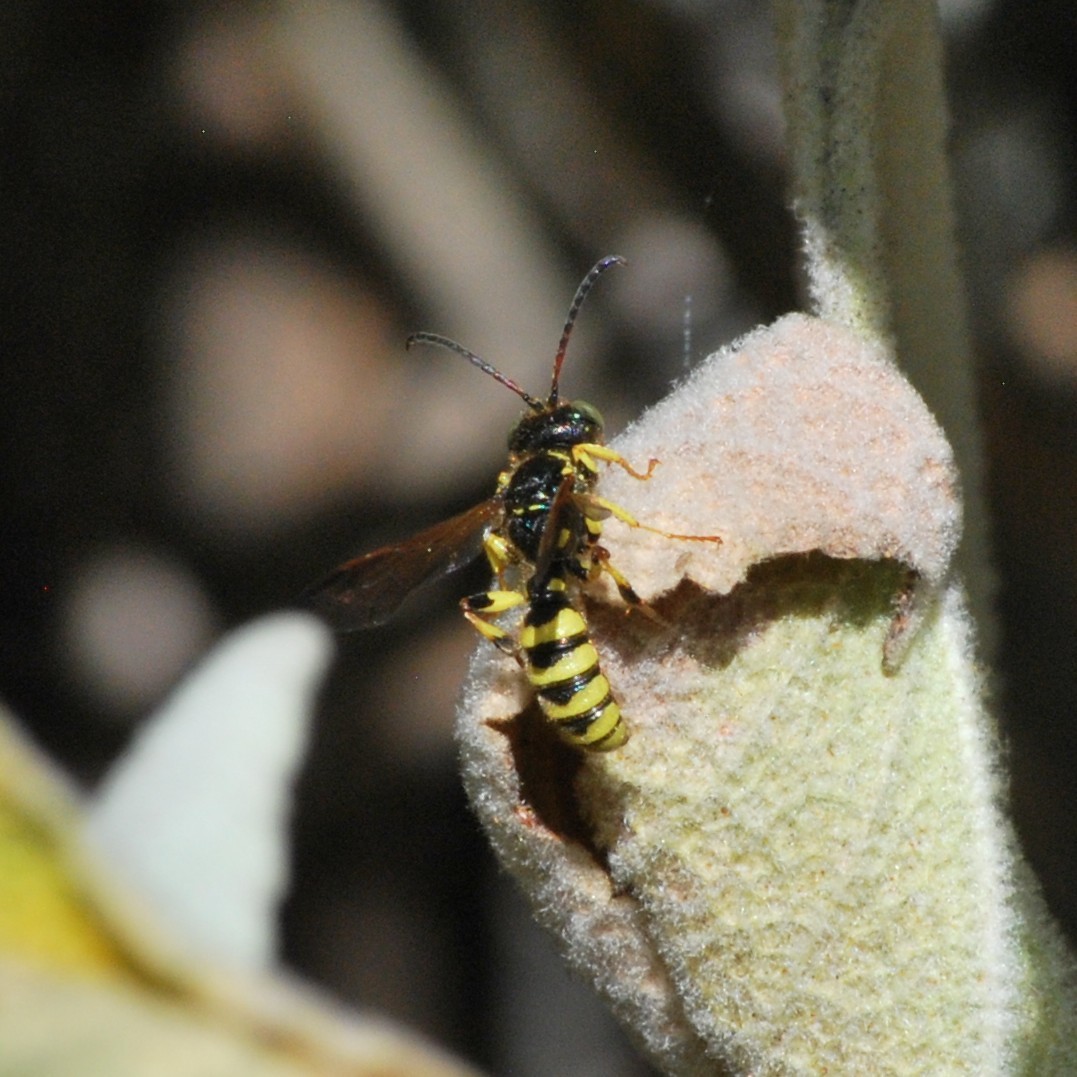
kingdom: Animalia
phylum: Arthropoda
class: Insecta
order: Hymenoptera
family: Crabronidae
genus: Cerceris
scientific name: Cerceris sextoides
